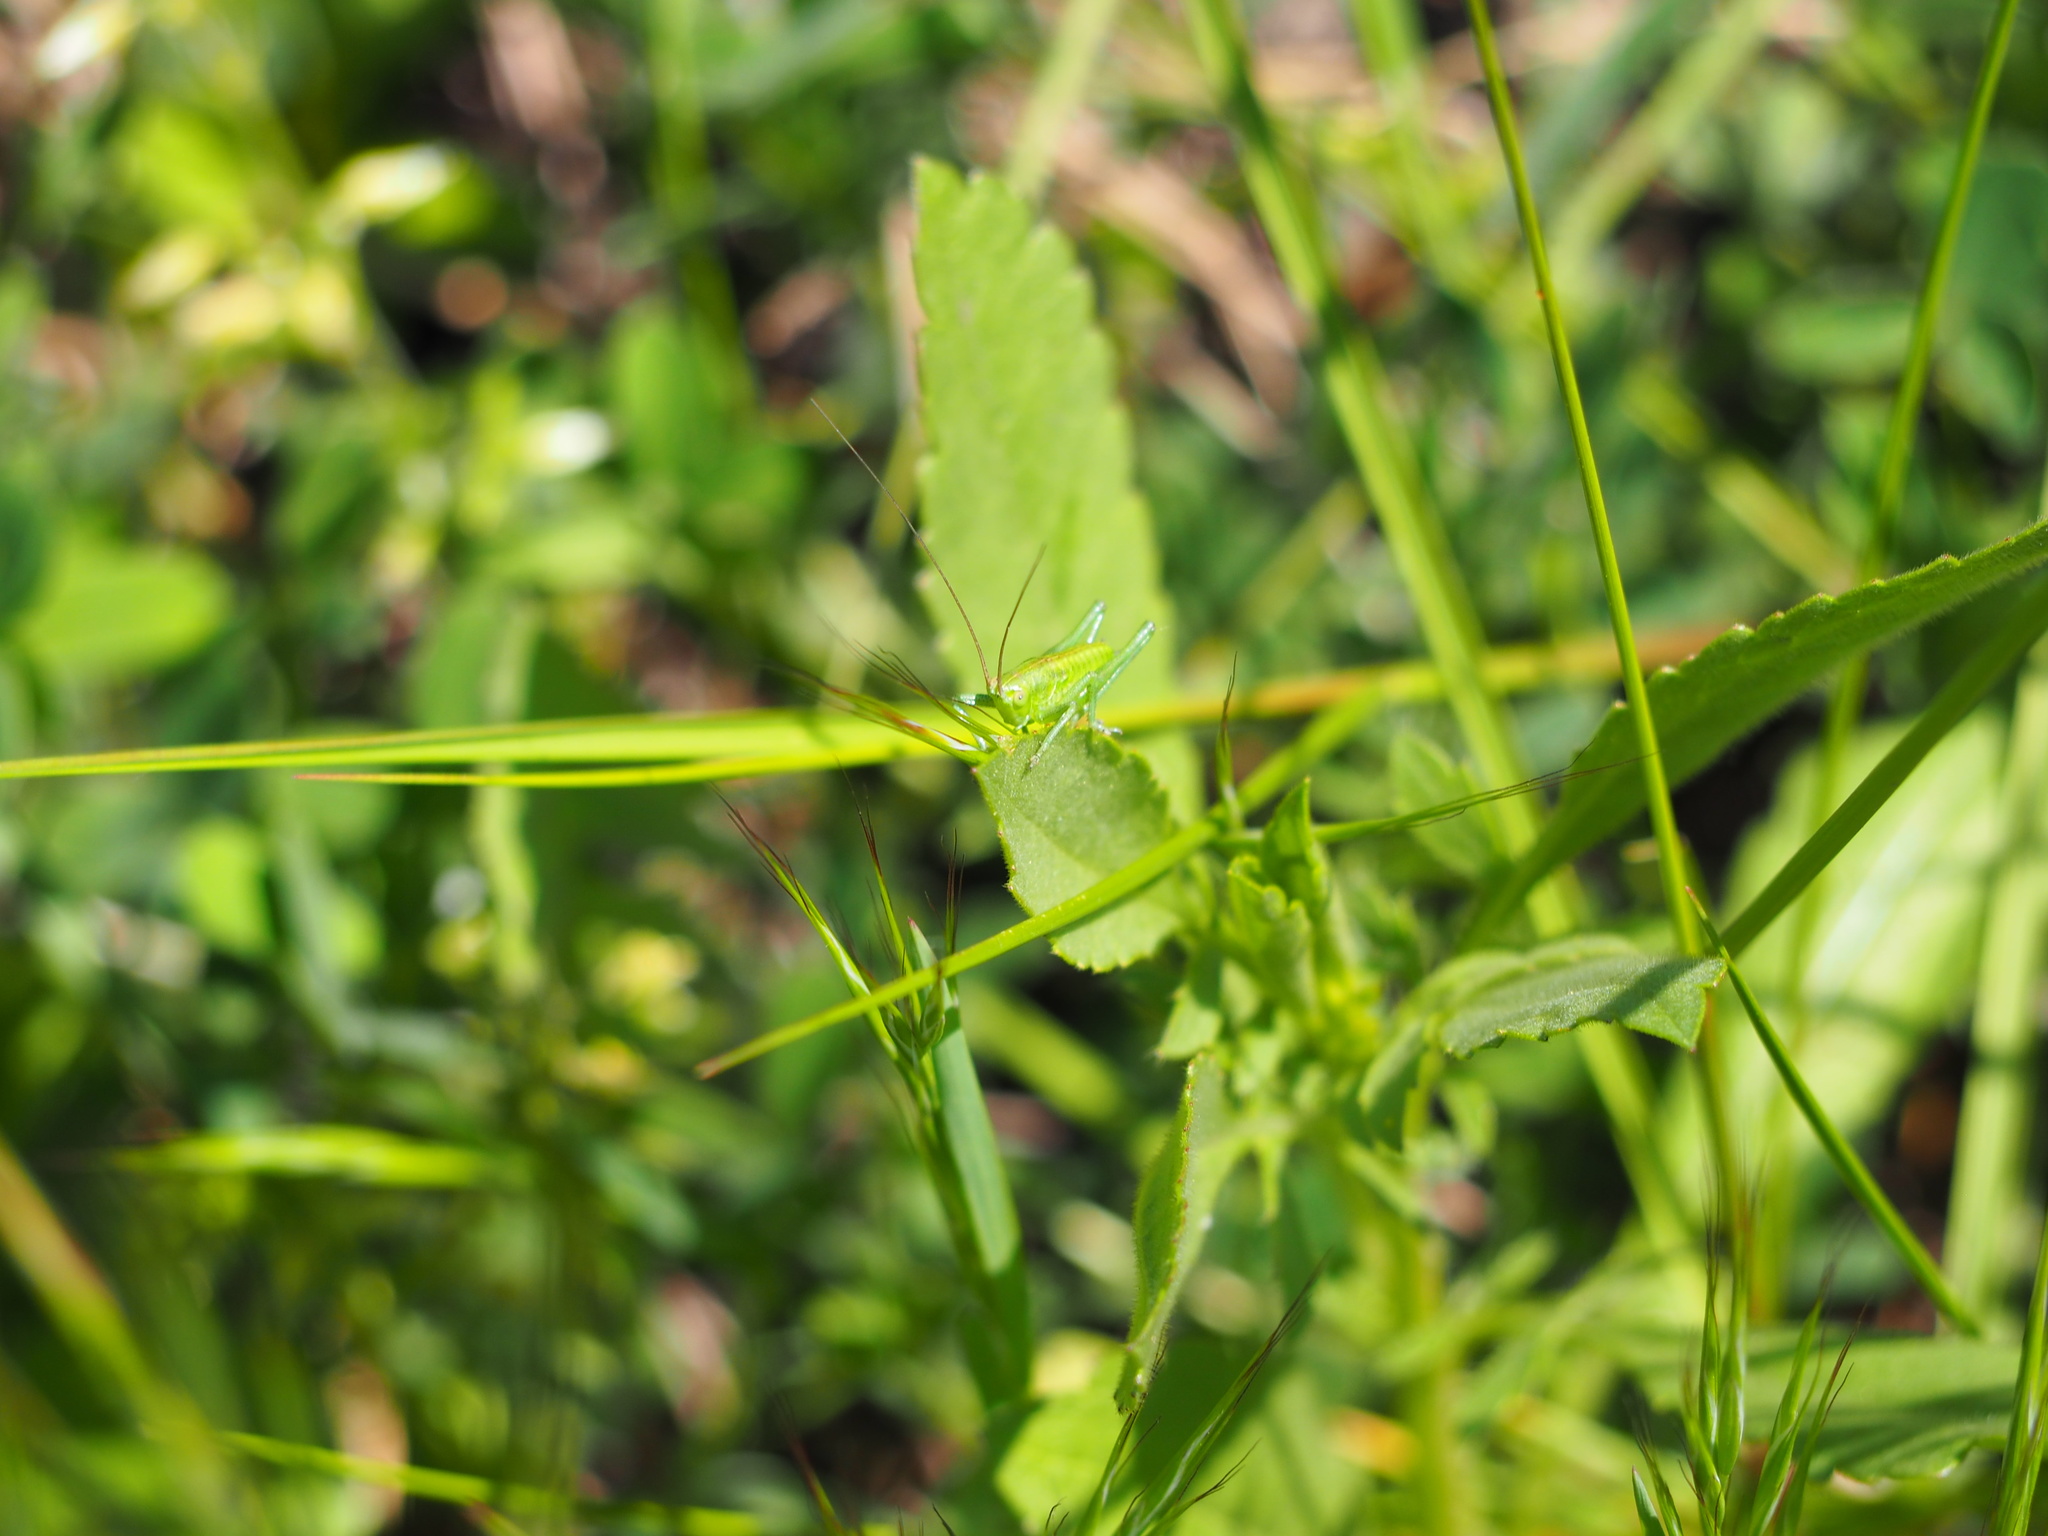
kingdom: Animalia
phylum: Arthropoda
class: Insecta
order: Orthoptera
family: Tettigoniidae
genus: Tettigonia
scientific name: Tettigonia viridissima
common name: Great green bush-cricket
